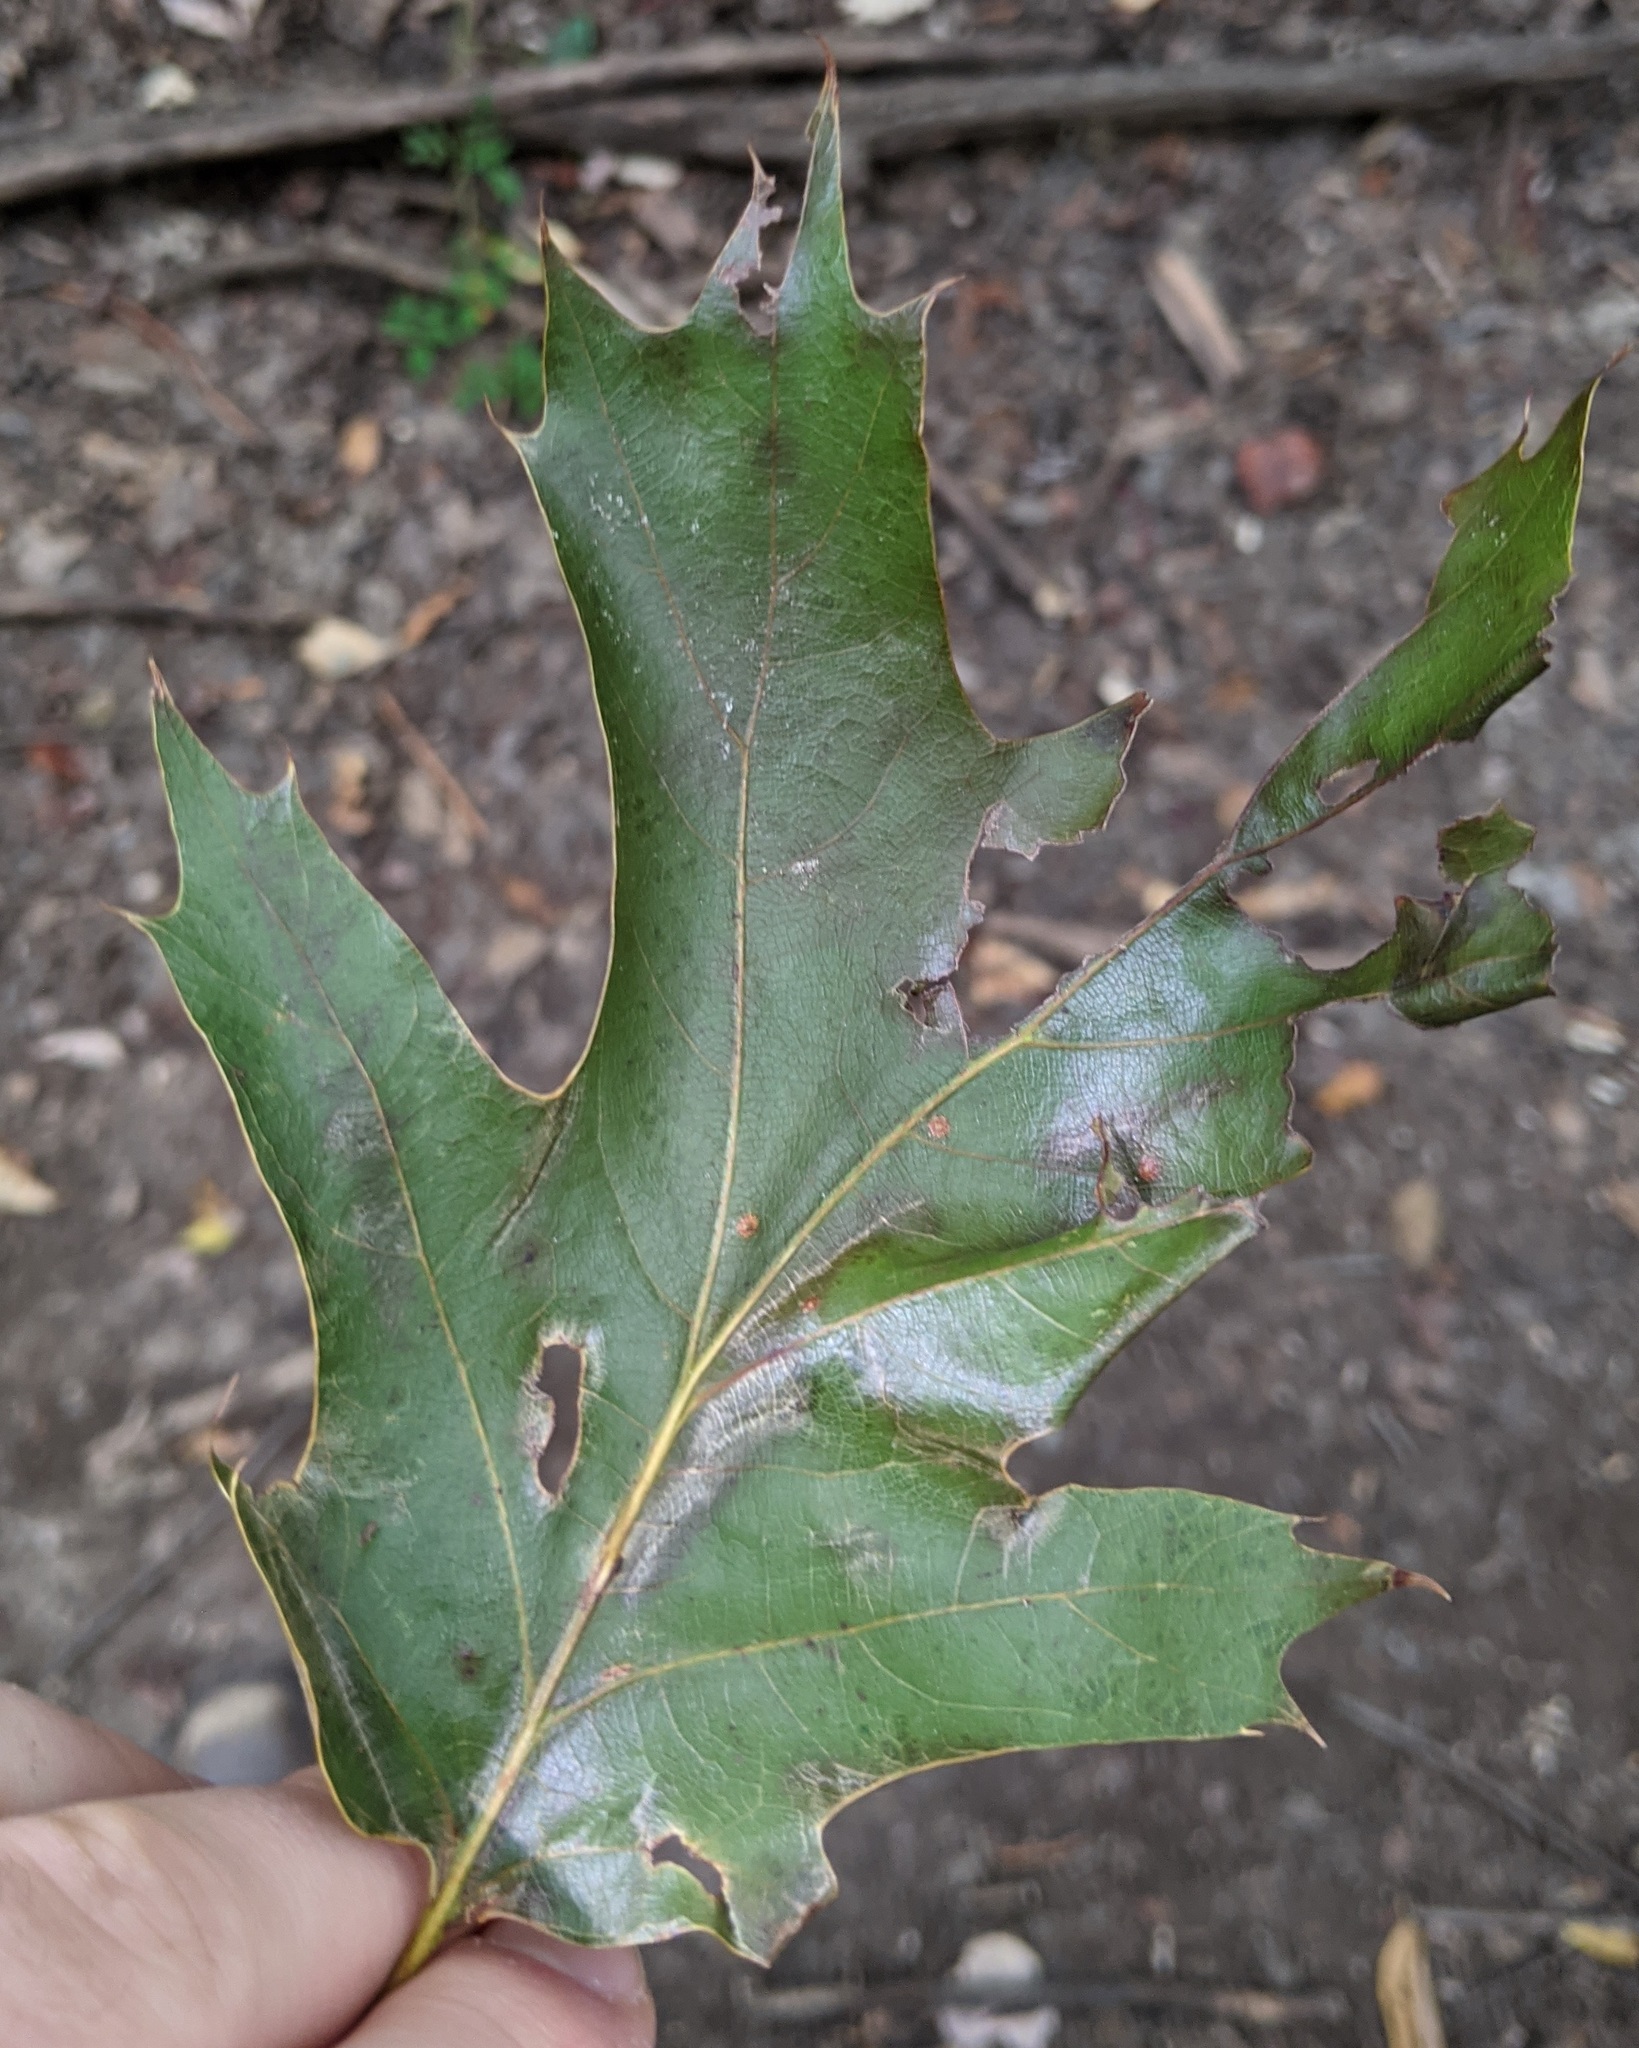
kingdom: Plantae
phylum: Tracheophyta
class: Magnoliopsida
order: Fagales
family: Fagaceae
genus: Quercus
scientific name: Quercus rubra
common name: Red oak
